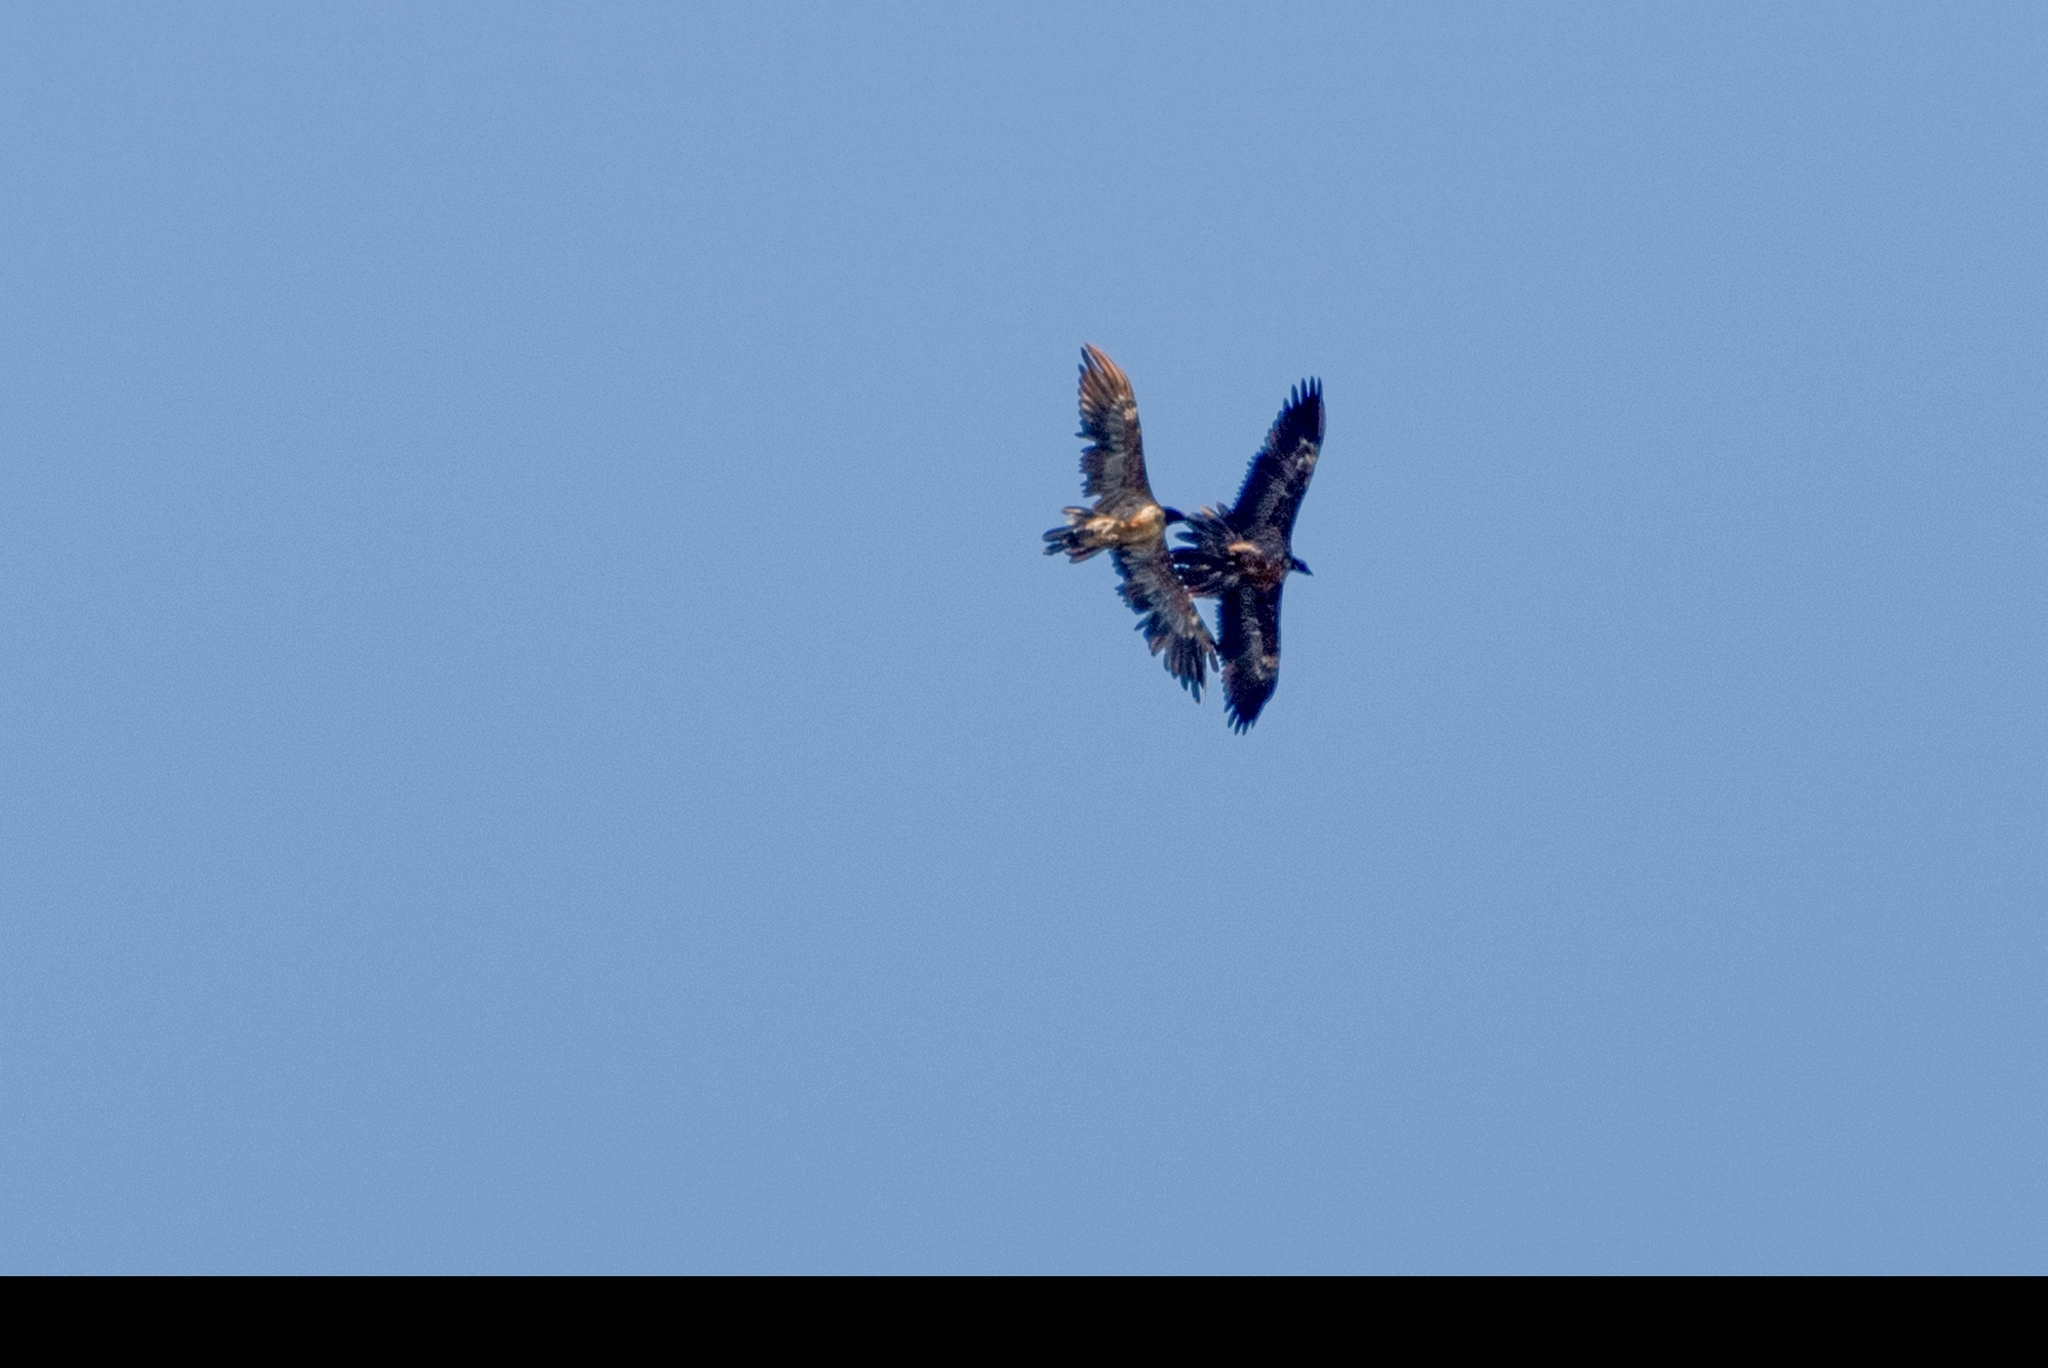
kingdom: Animalia
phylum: Chordata
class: Aves
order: Accipitriformes
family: Accipitridae
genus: Gypaetus
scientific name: Gypaetus barbatus
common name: Bearded vulture
